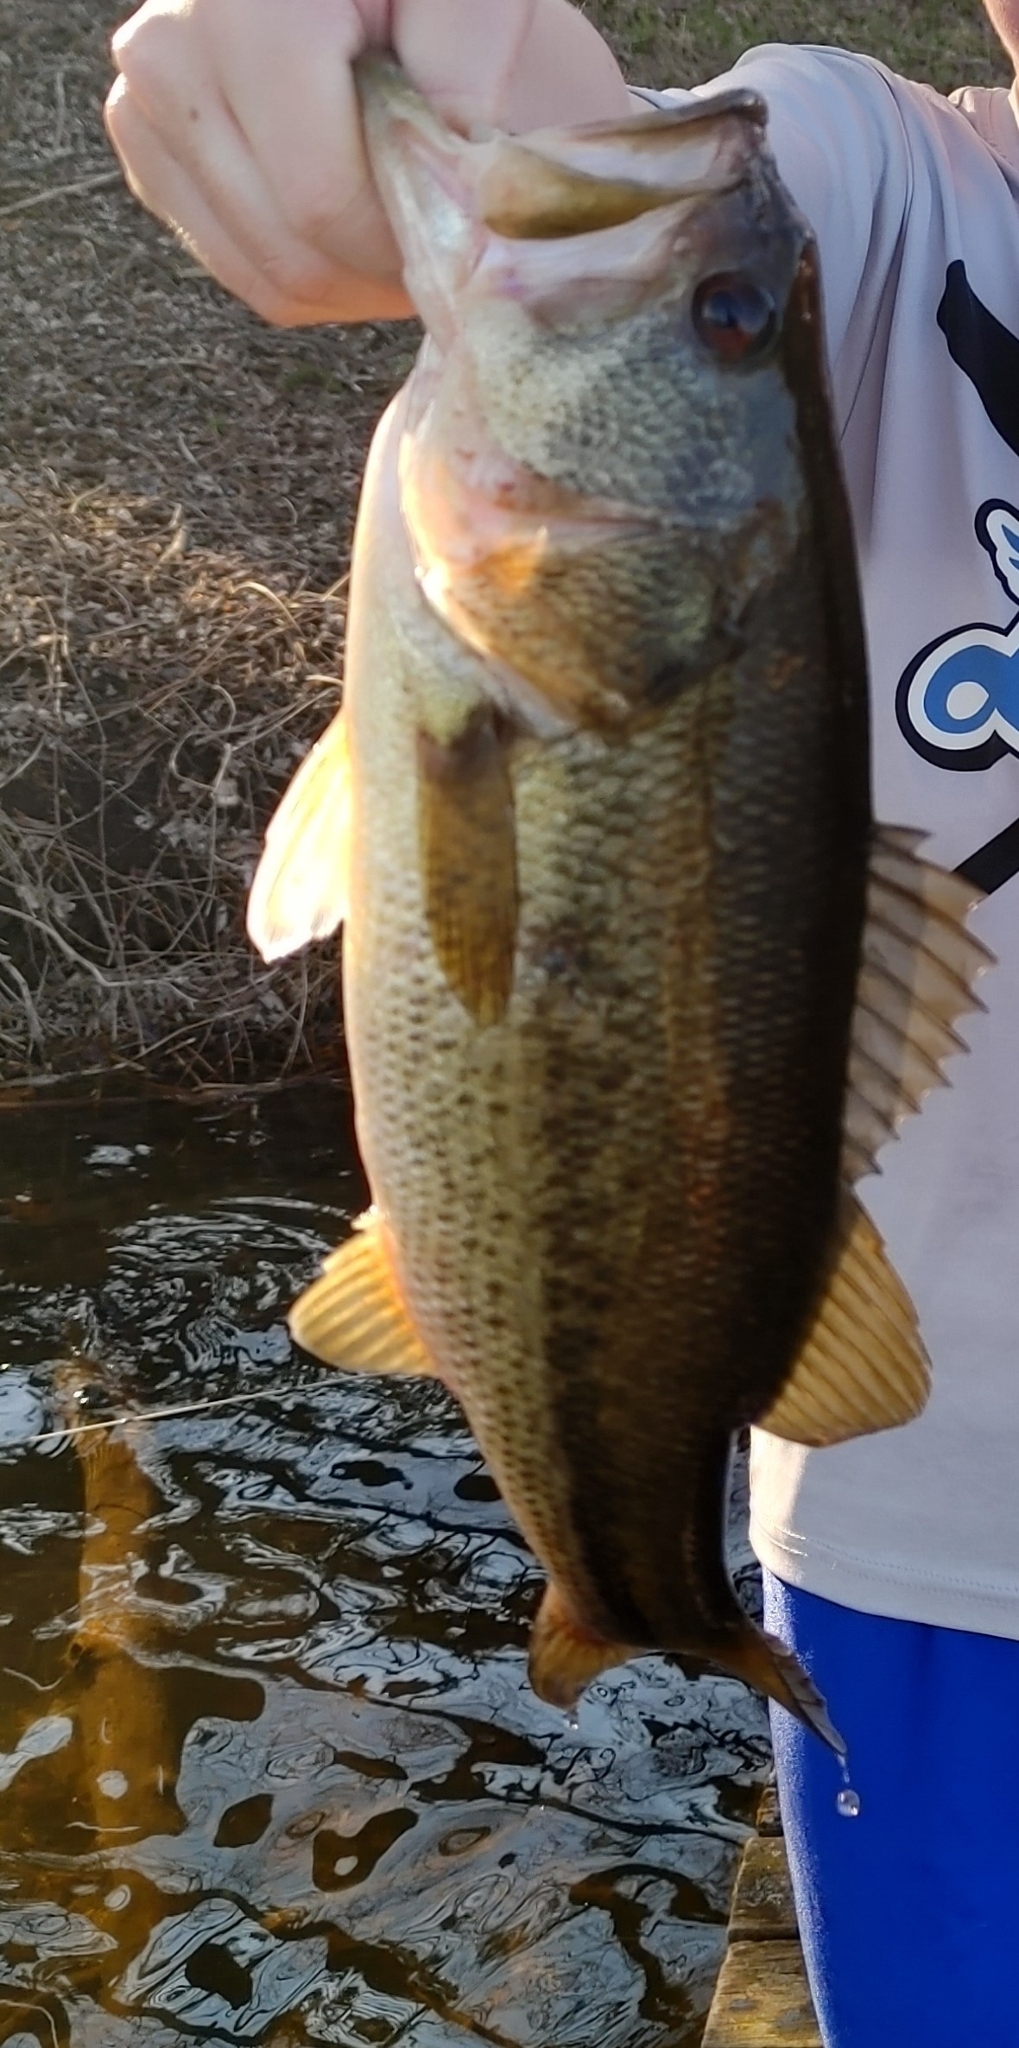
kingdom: Animalia
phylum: Chordata
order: Perciformes
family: Centrarchidae
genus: Micropterus
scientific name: Micropterus
